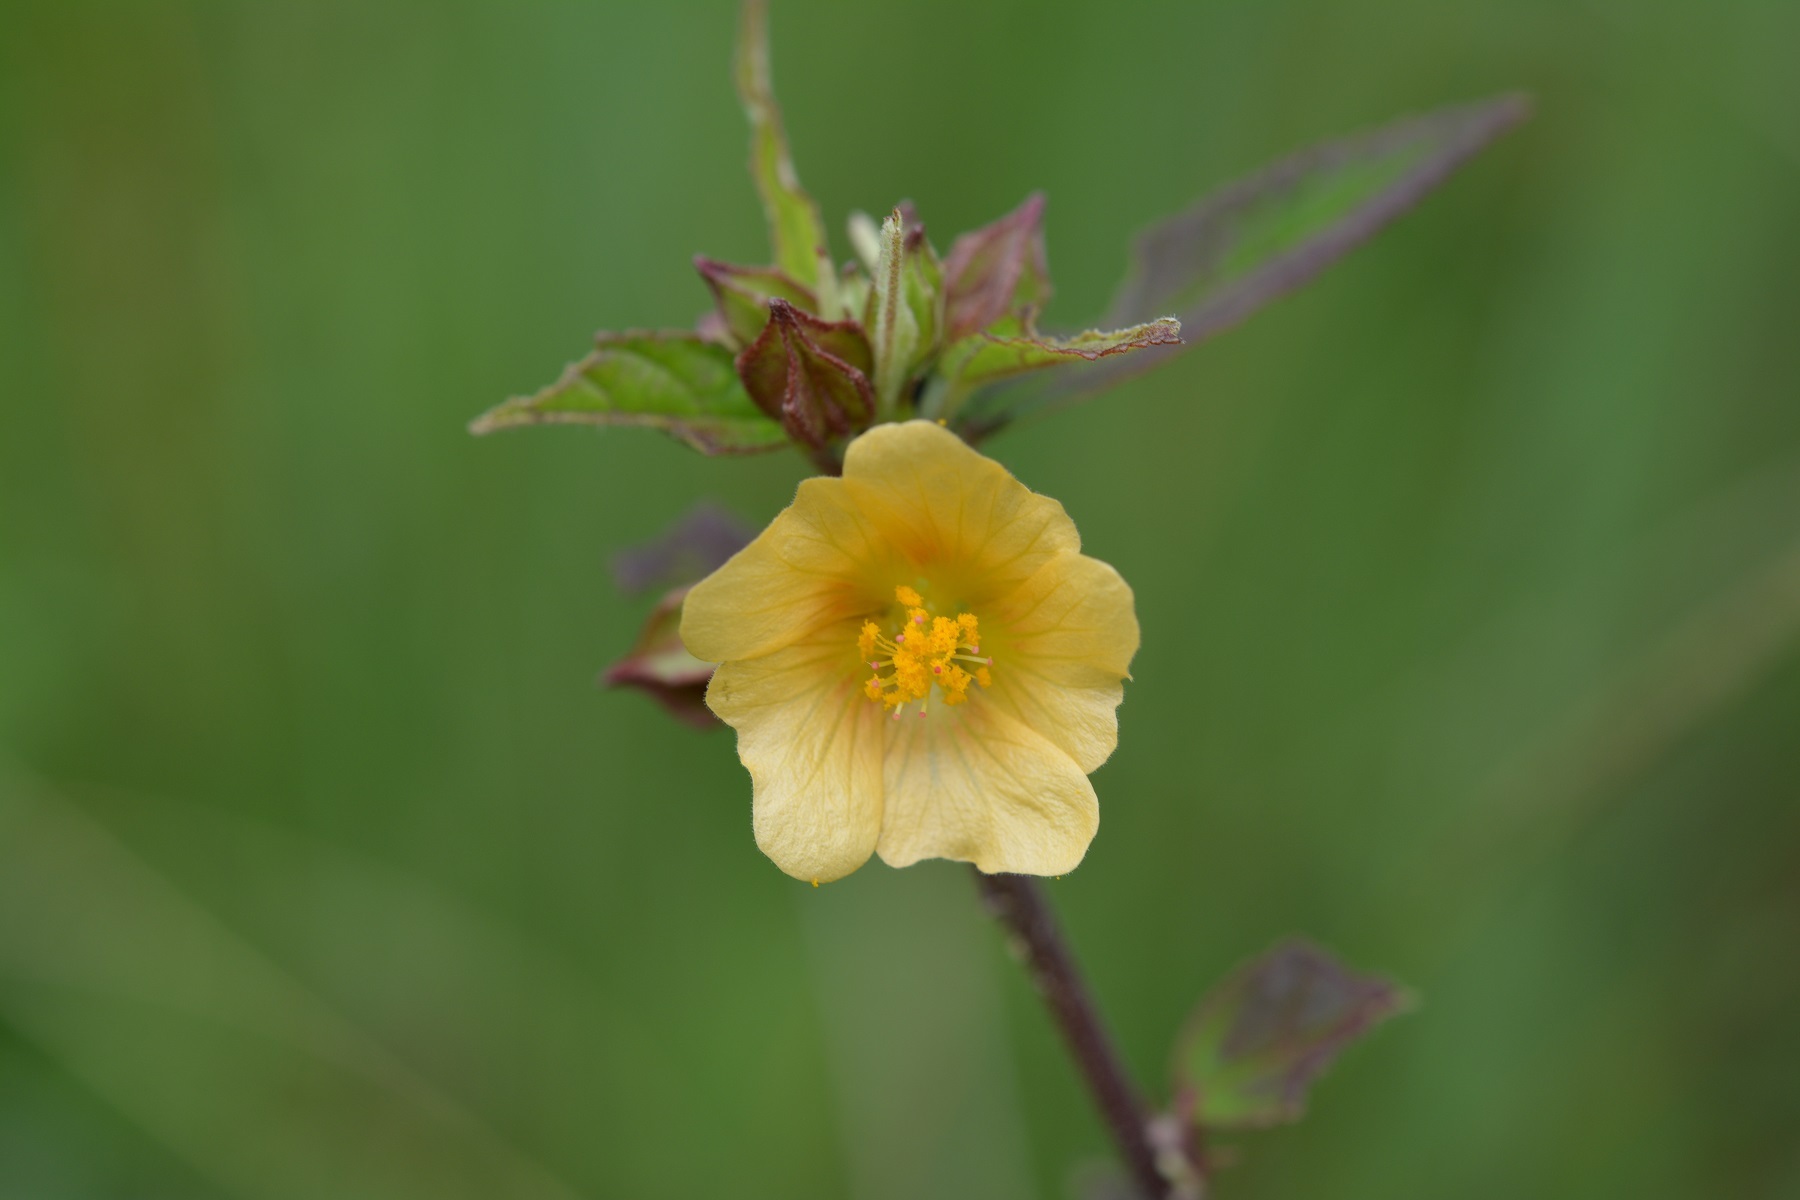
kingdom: Plantae
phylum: Tracheophyta
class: Magnoliopsida
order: Malvales
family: Malvaceae
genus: Sida
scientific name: Sida acuta
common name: Common wireweed
